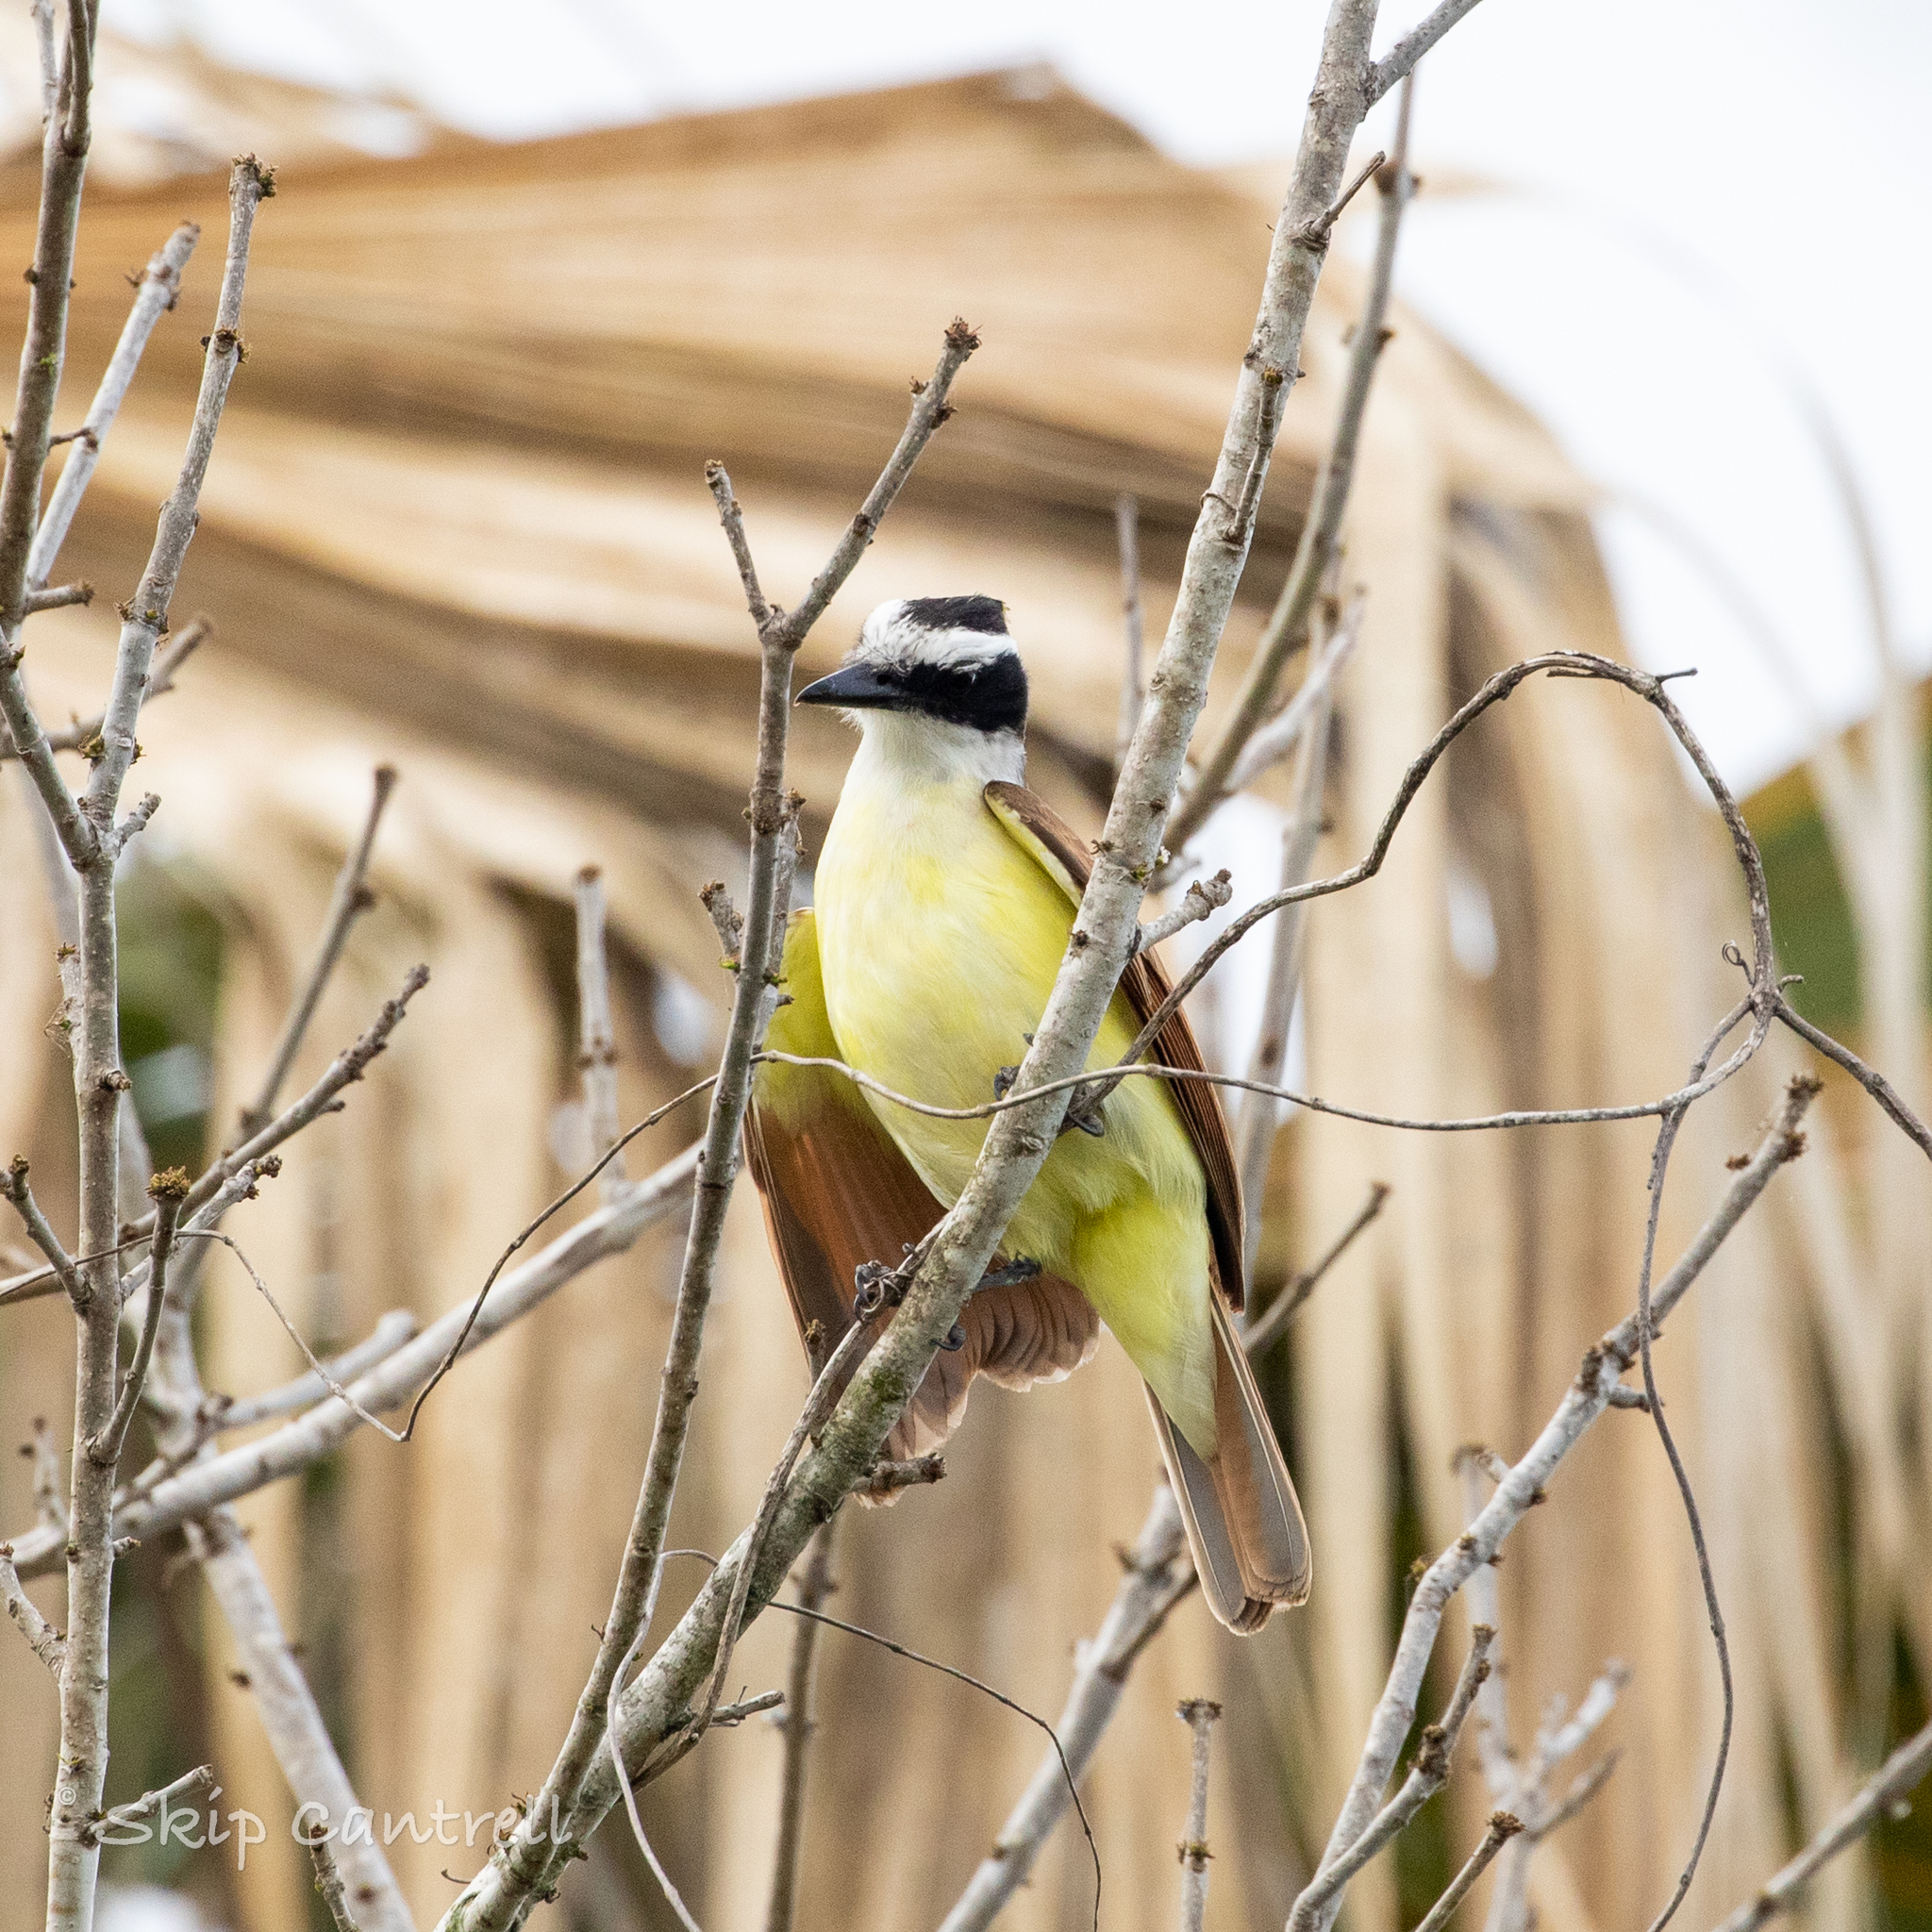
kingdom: Animalia
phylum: Chordata
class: Aves
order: Passeriformes
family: Tyrannidae
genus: Pitangus
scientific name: Pitangus sulphuratus
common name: Great kiskadee
